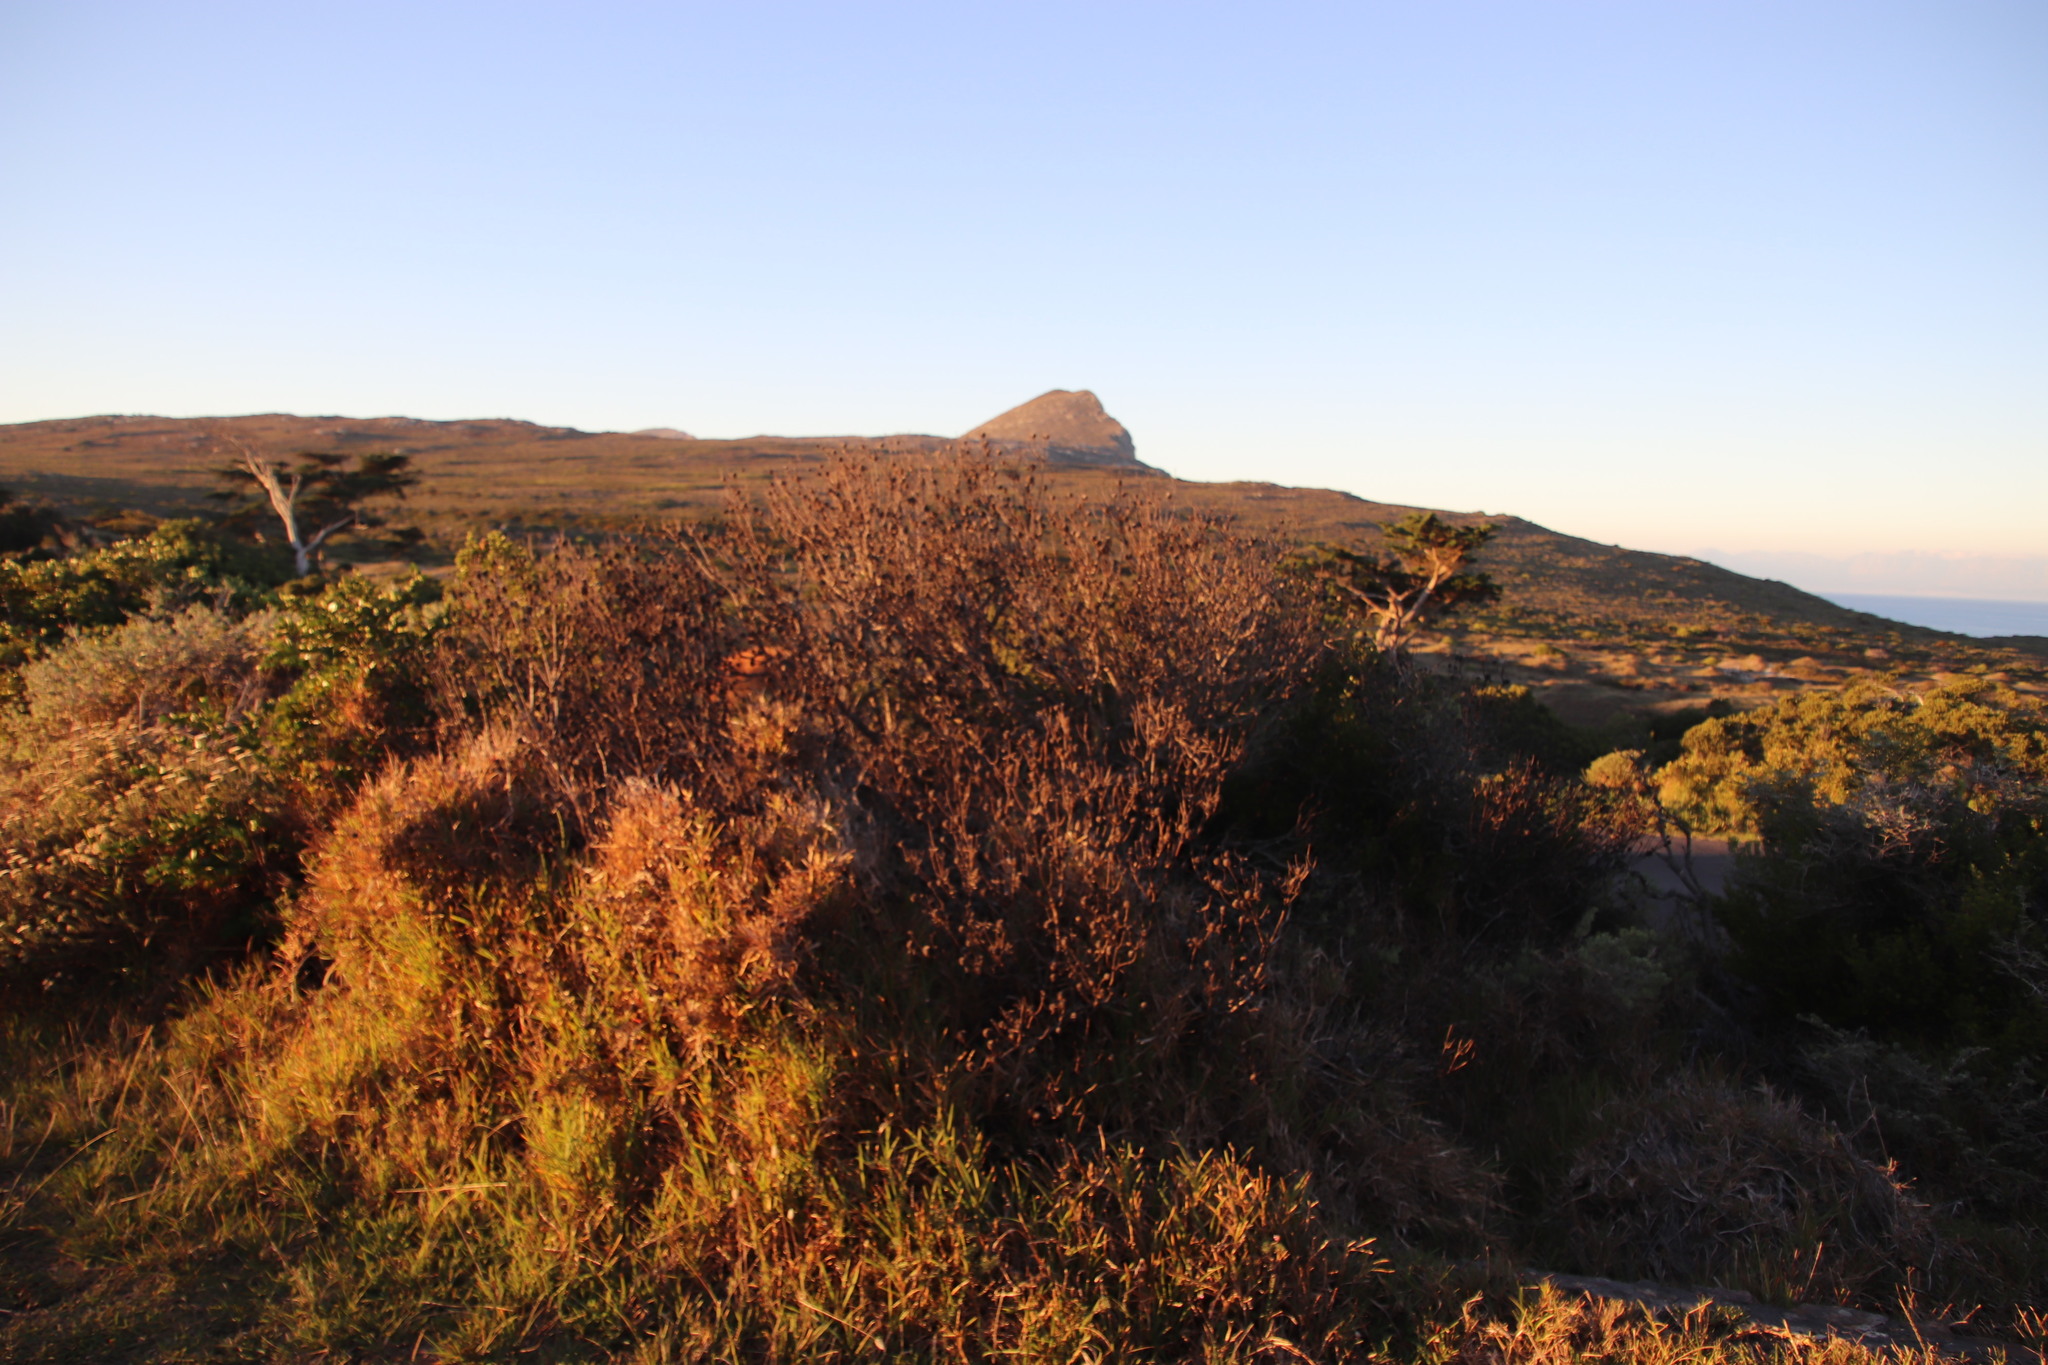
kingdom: Plantae
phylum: Tracheophyta
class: Magnoliopsida
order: Proteales
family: Proteaceae
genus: Leucadendron
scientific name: Leucadendron linifolium
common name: Line-leaf conebush
